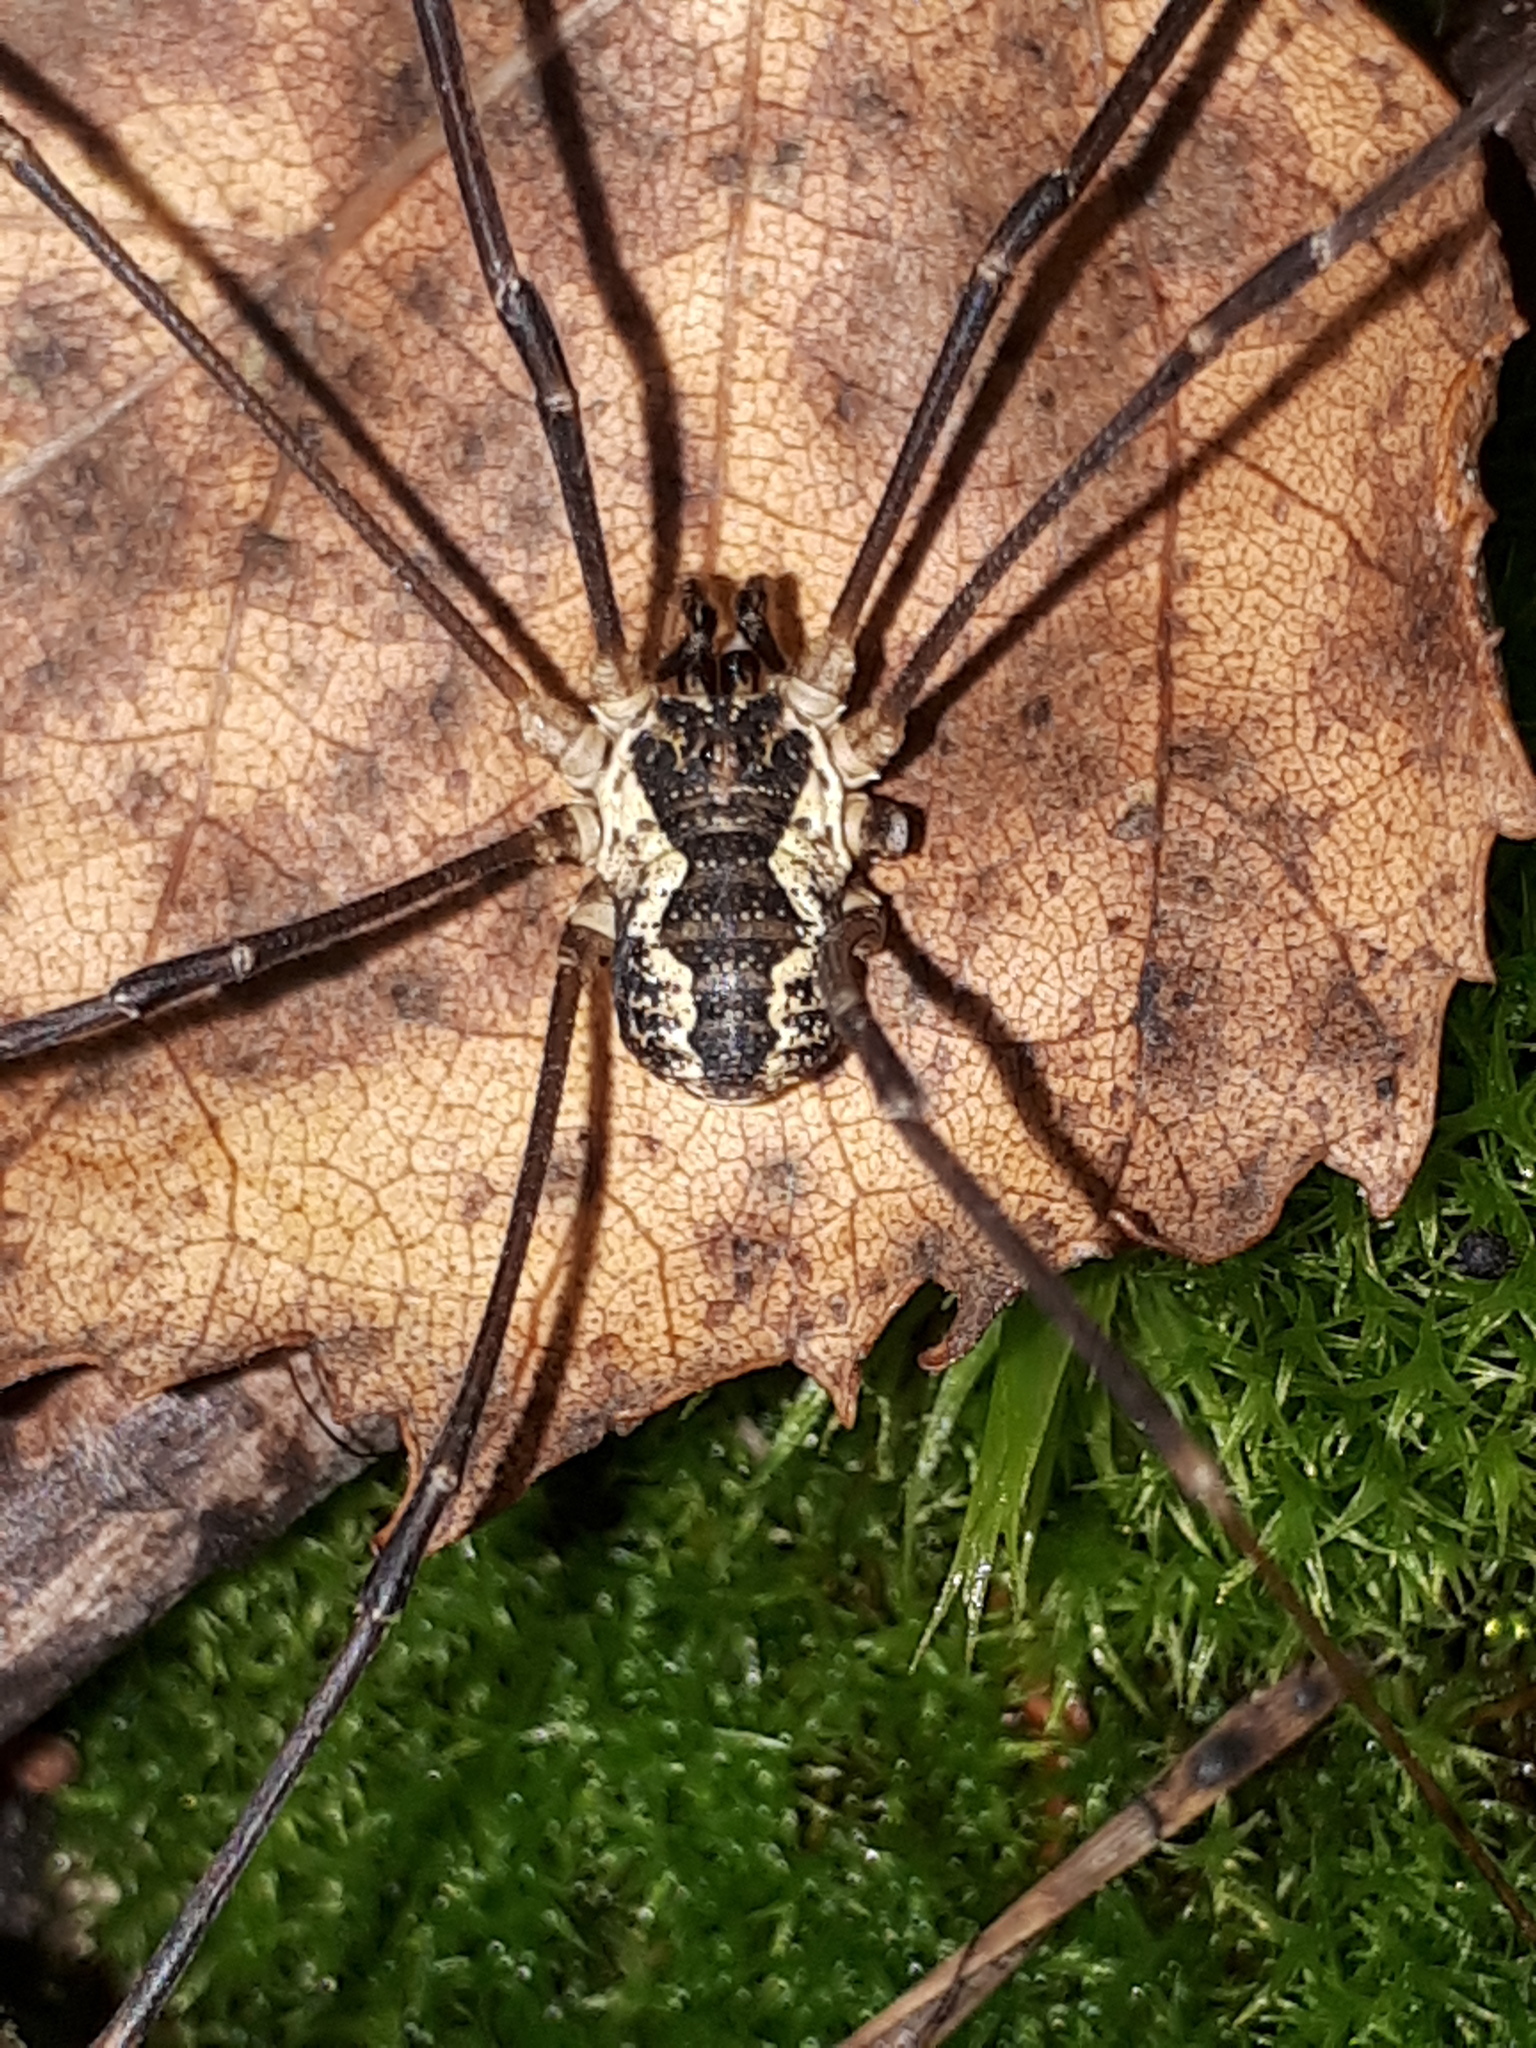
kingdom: Animalia
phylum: Arthropoda
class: Arachnida
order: Opiliones
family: Phalangiidae
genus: Mitopus
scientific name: Mitopus morio
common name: Saddleback harvestman
